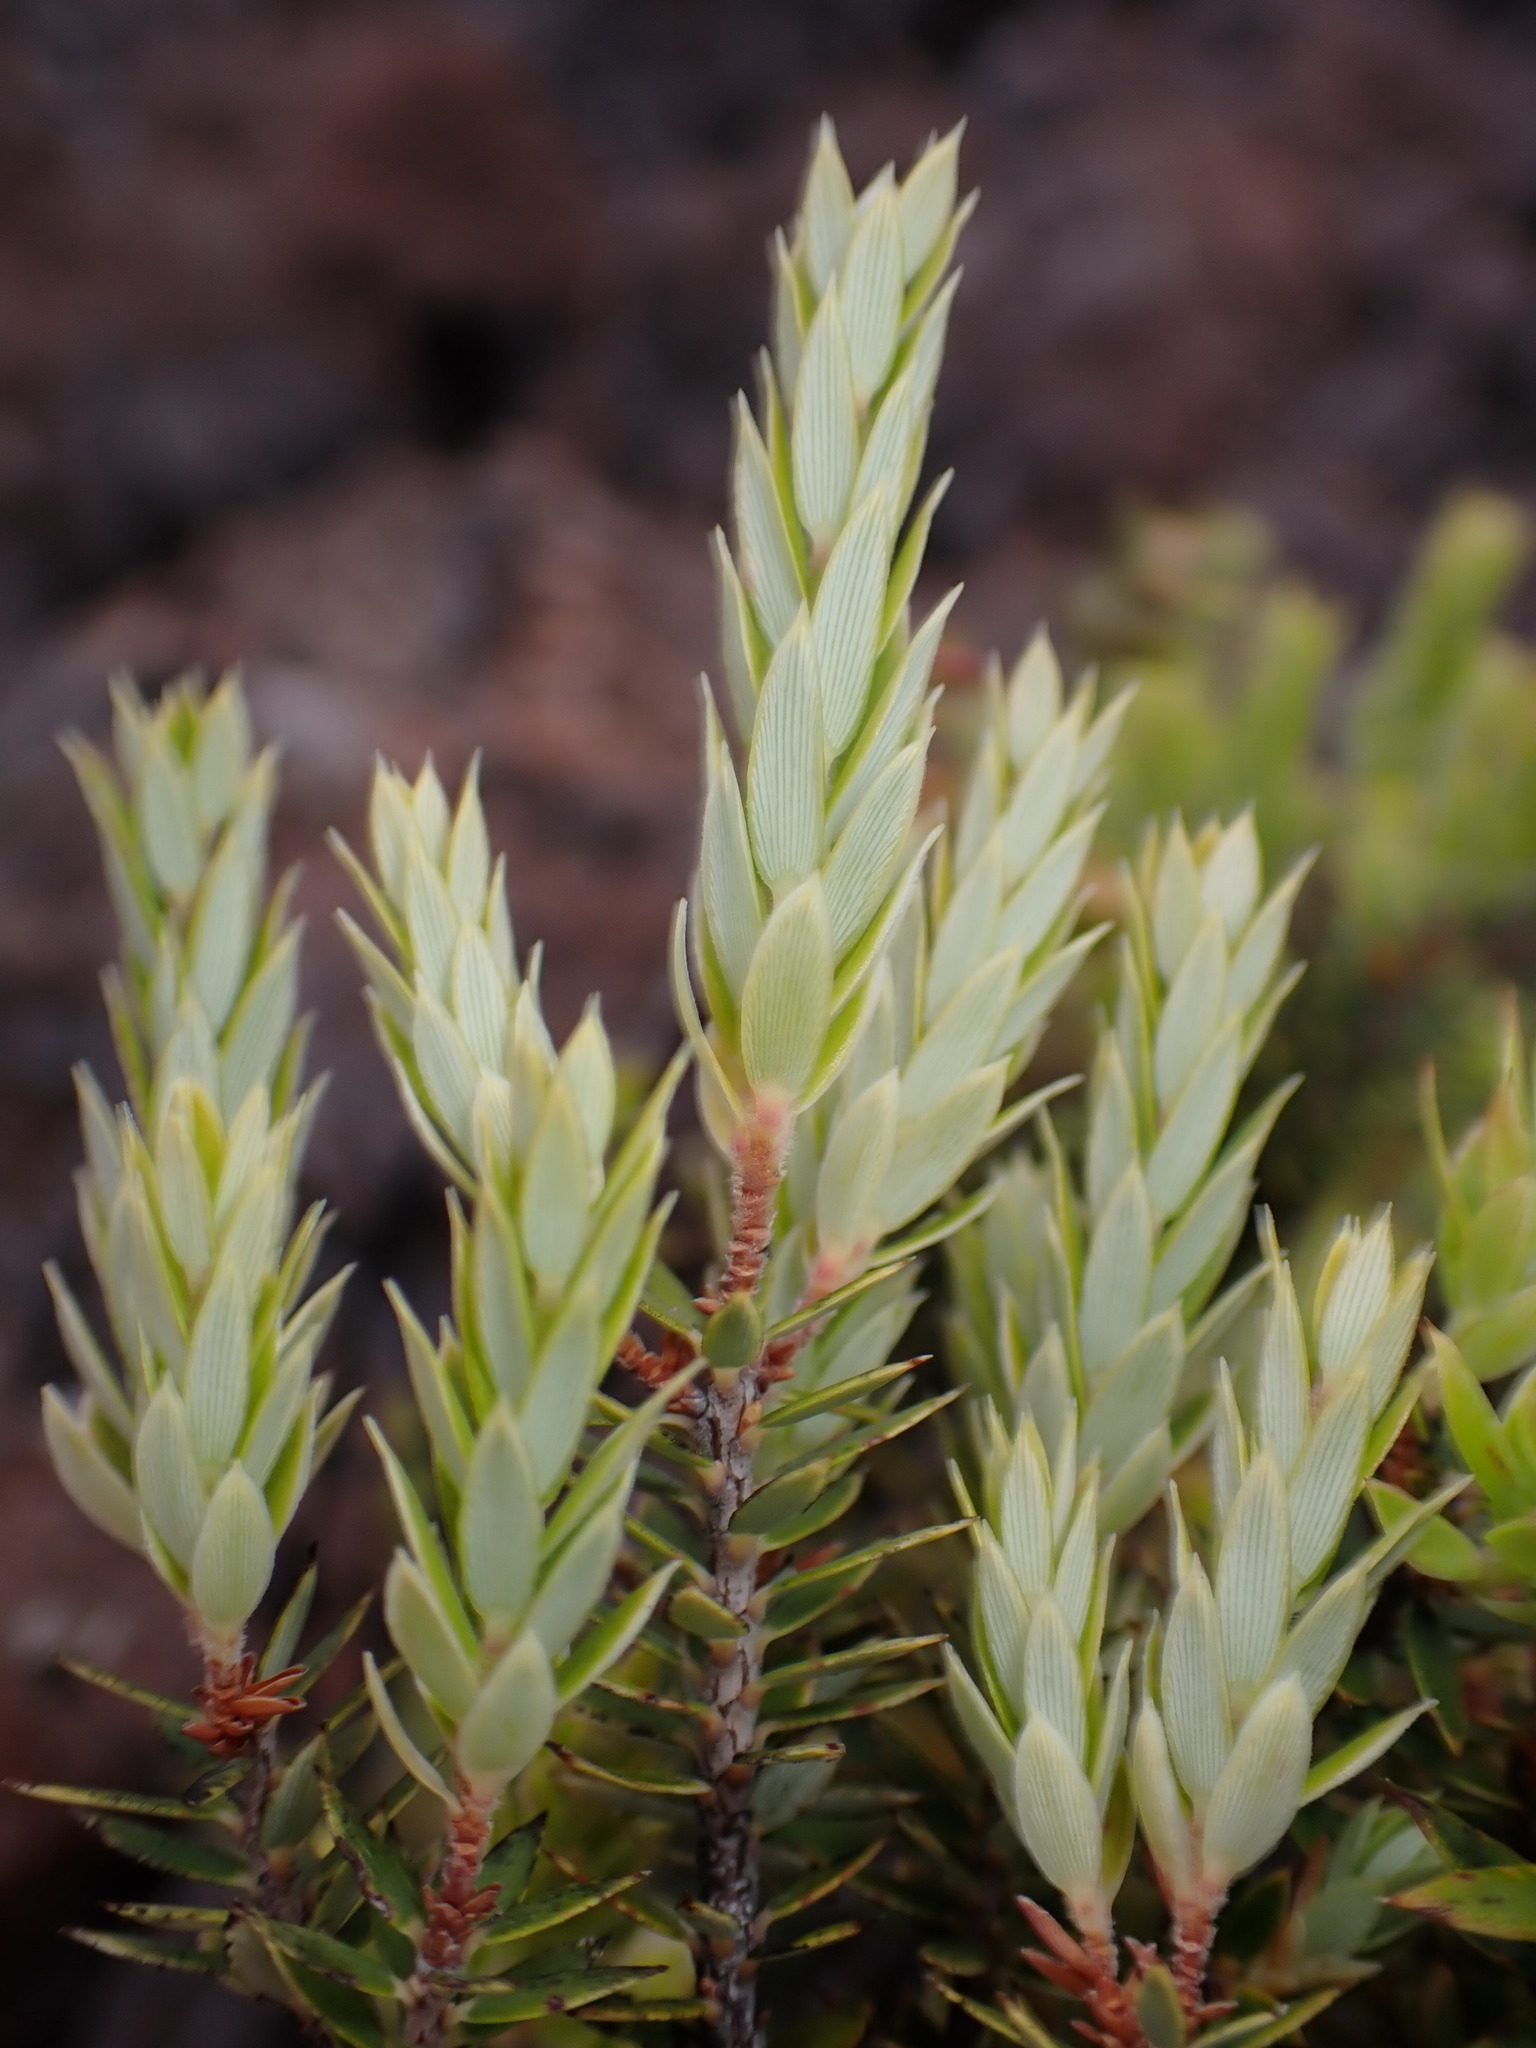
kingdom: Plantae
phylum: Tracheophyta
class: Magnoliopsida
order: Ericales
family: Ericaceae
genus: Leptecophylla
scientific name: Leptecophylla tameiameiae
